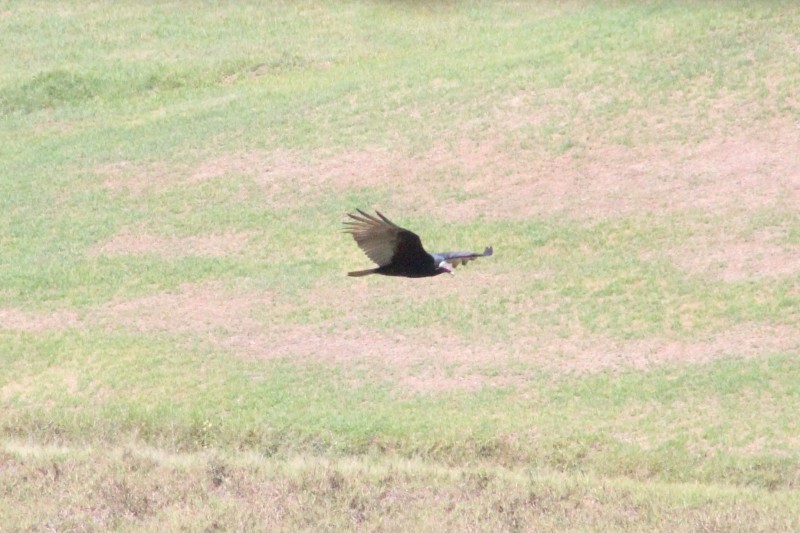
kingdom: Animalia
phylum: Chordata
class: Aves
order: Accipitriformes
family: Cathartidae
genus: Cathartes
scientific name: Cathartes aura
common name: Turkey vulture
